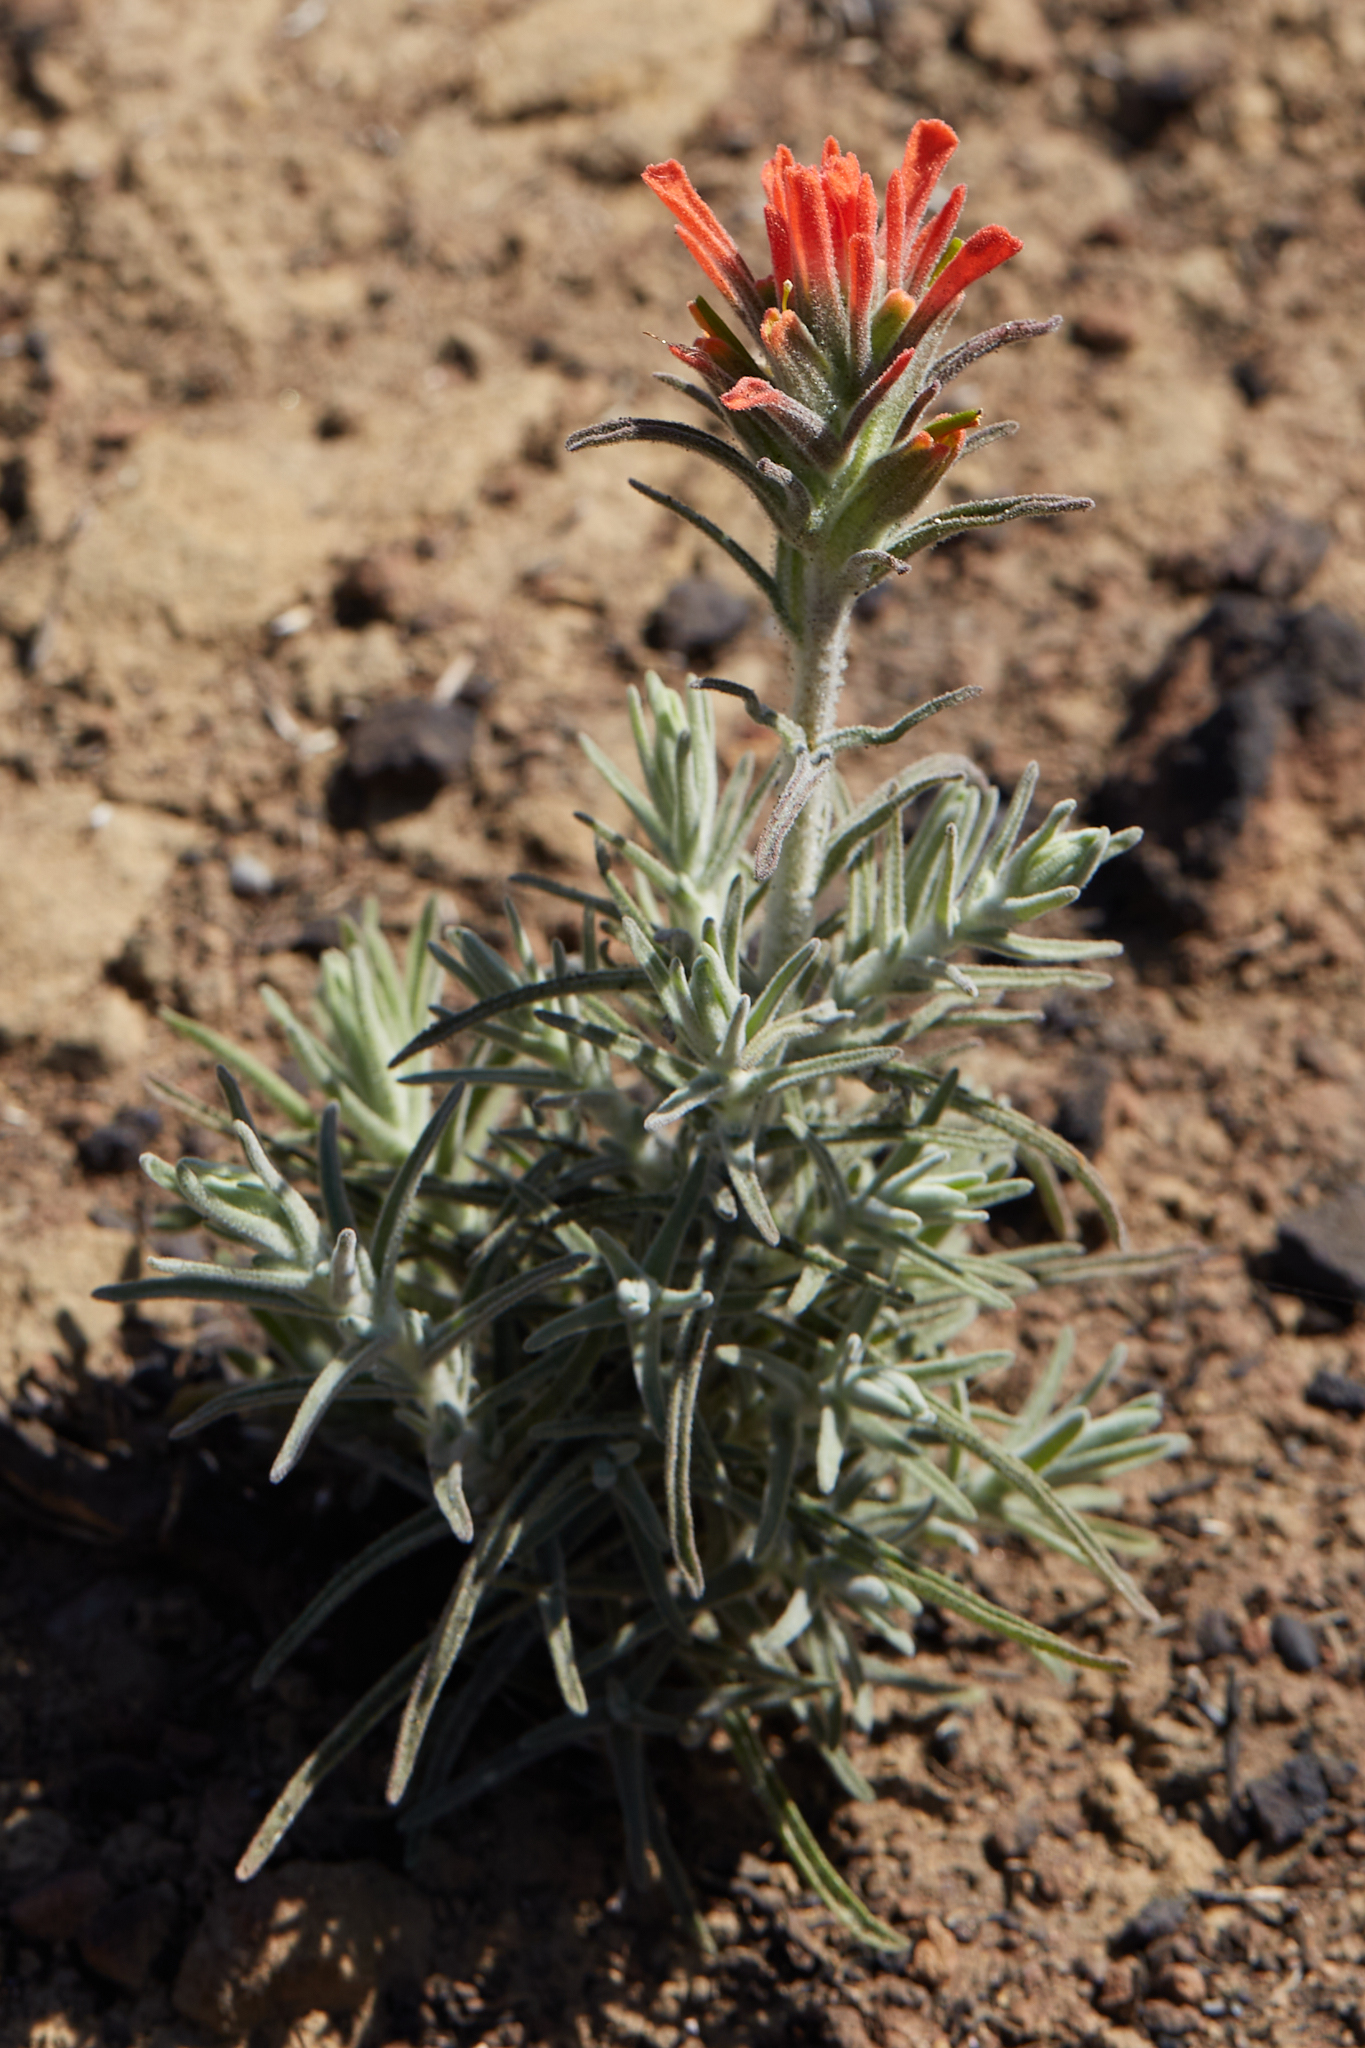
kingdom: Plantae
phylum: Tracheophyta
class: Magnoliopsida
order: Lamiales
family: Orobanchaceae
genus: Castilleja
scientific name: Castilleja foliolosa
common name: Woolly indian paintbrush
